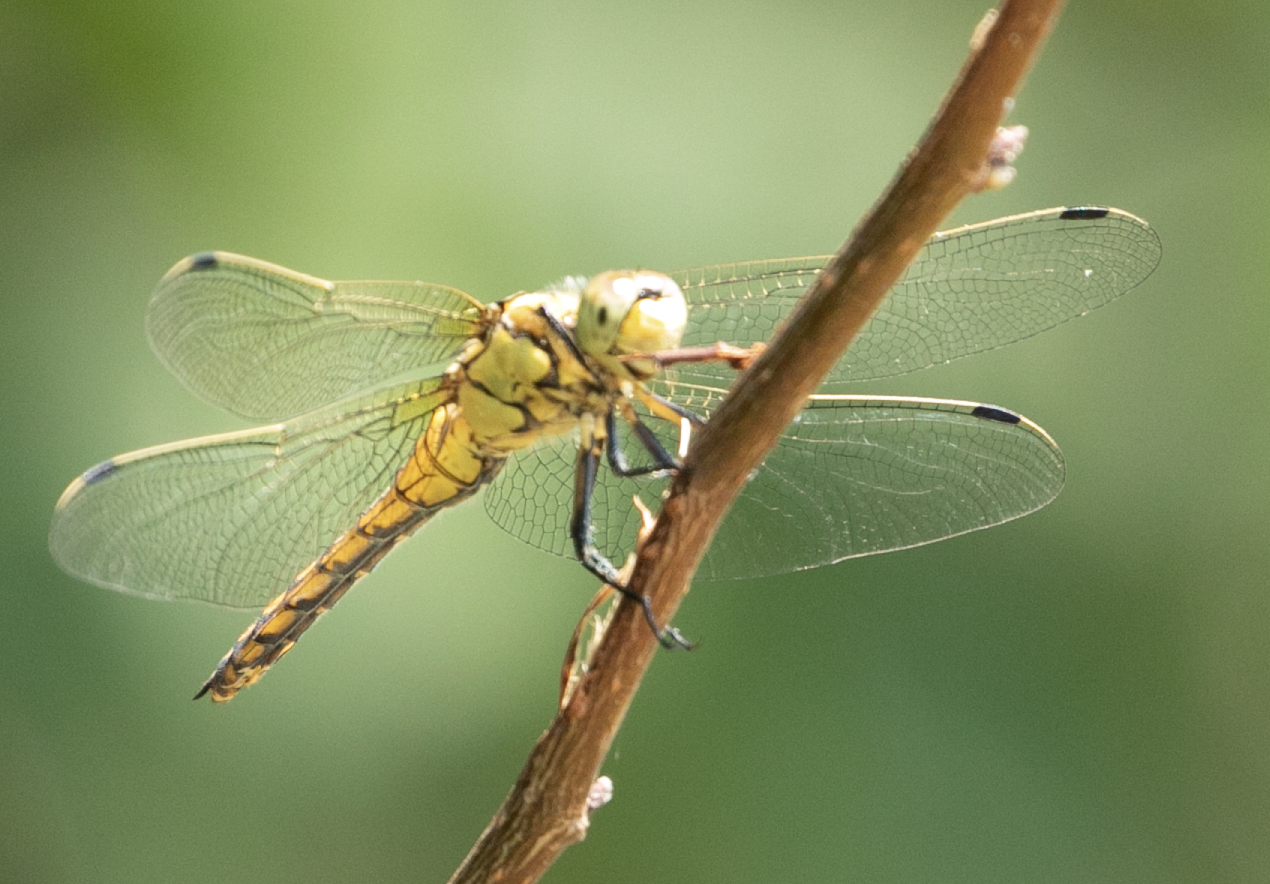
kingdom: Animalia
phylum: Arthropoda
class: Insecta
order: Odonata
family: Libellulidae
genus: Orthetrum
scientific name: Orthetrum cancellatum
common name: Black-tailed skimmer
